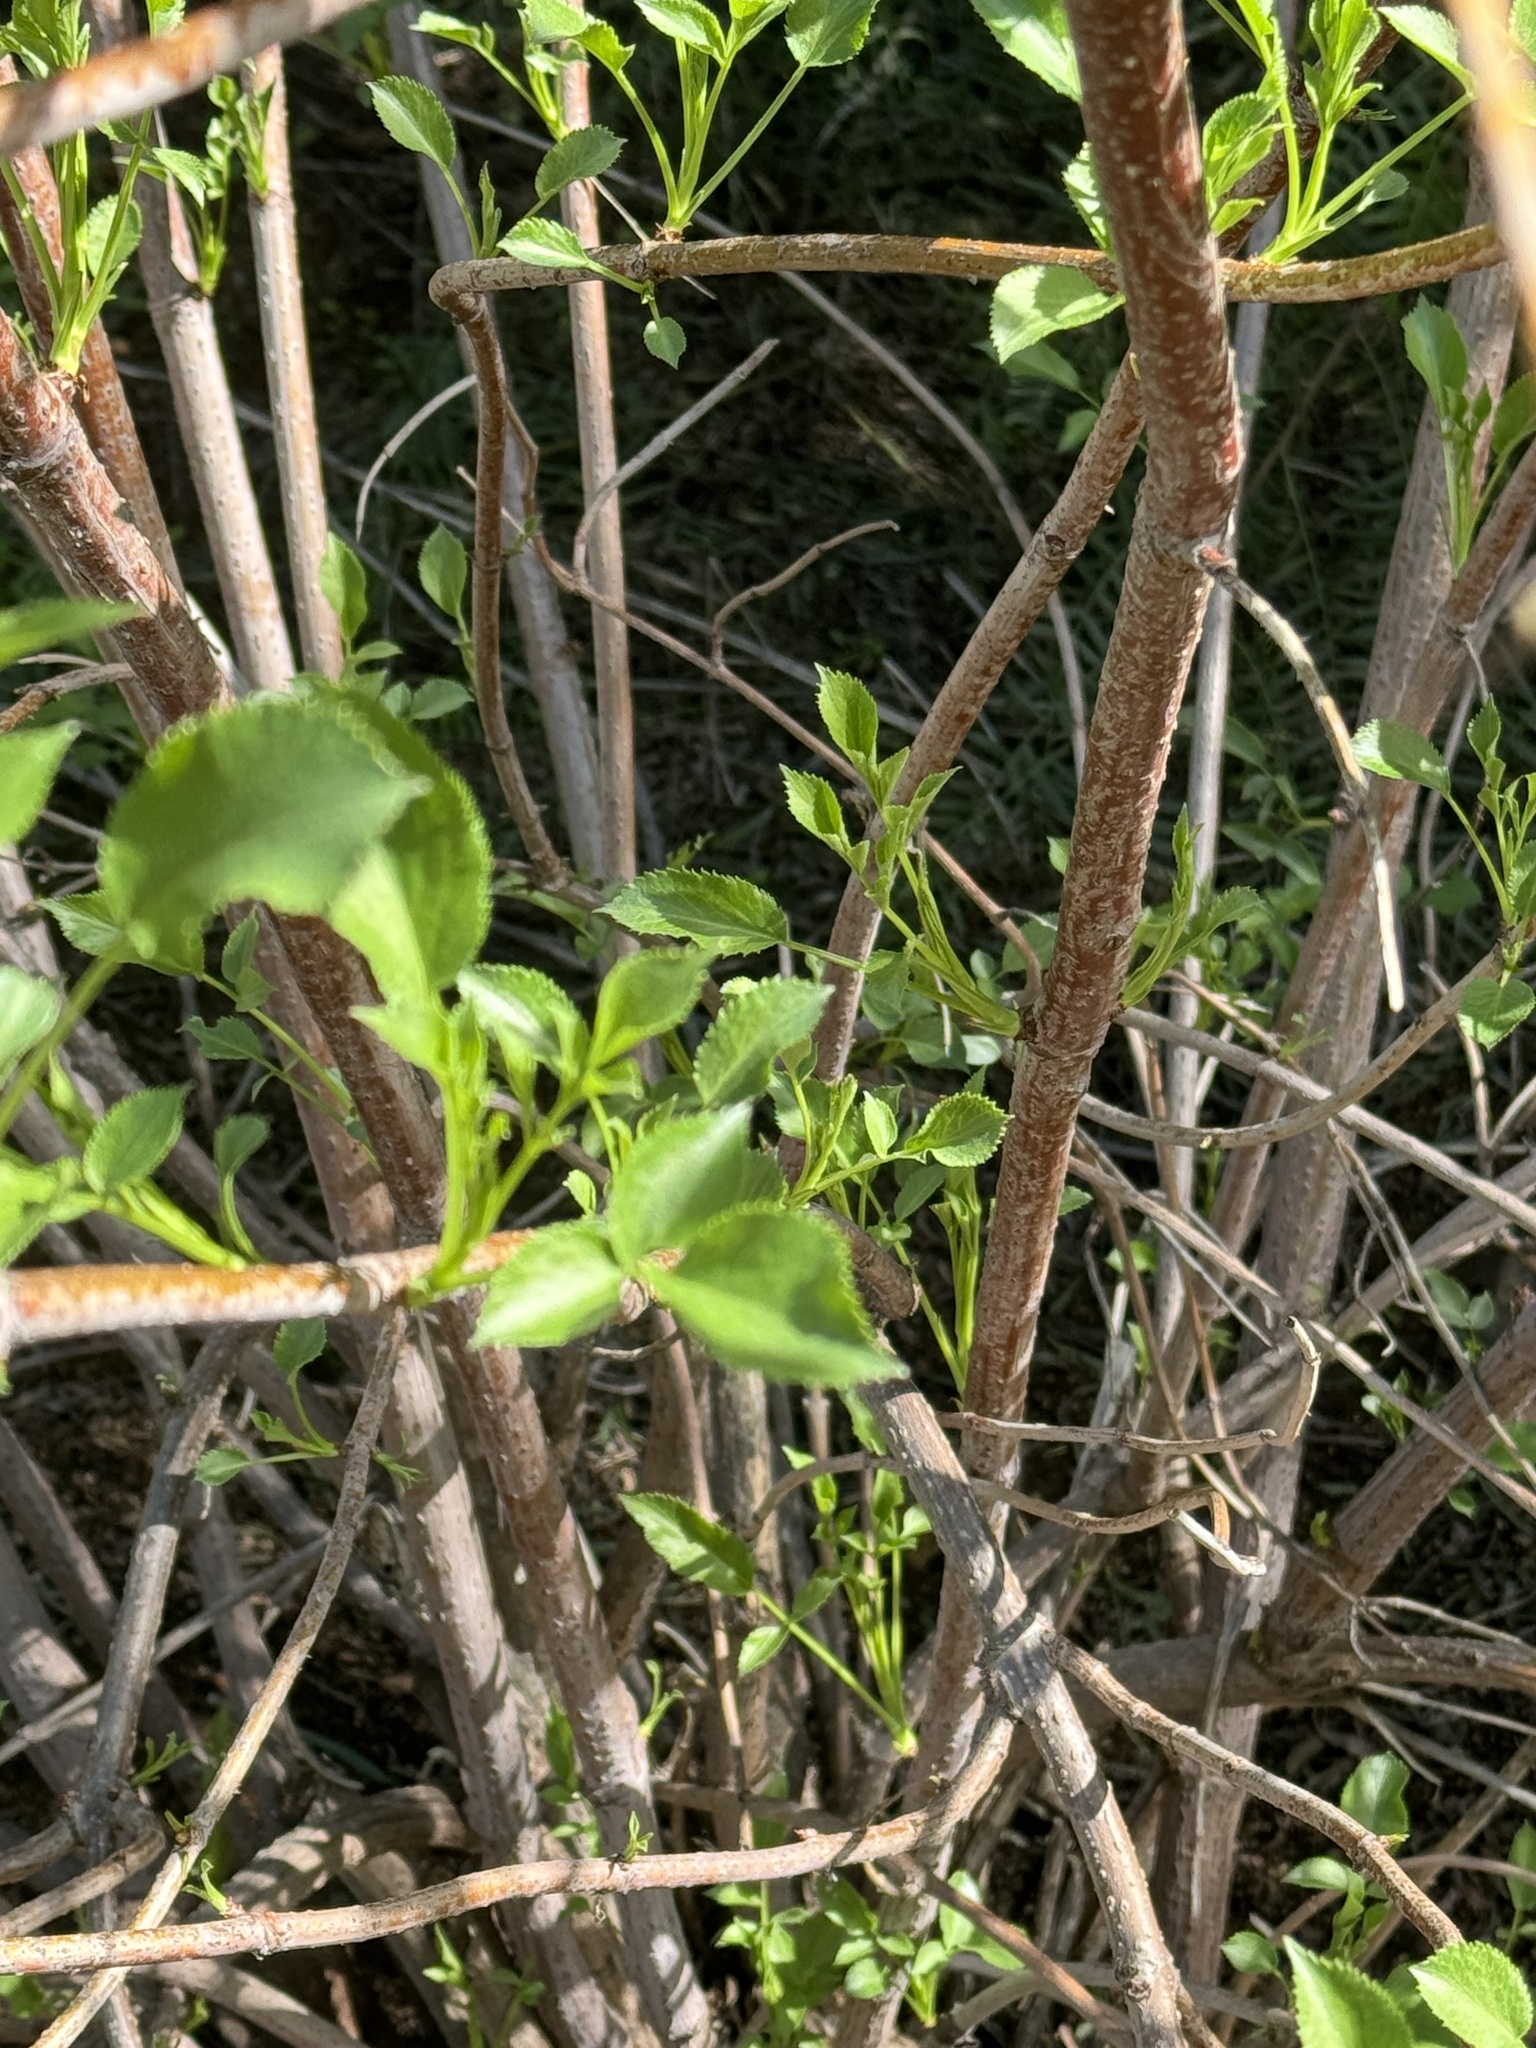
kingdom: Plantae
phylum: Tracheophyta
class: Magnoliopsida
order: Dipsacales
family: Viburnaceae
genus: Sambucus
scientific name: Sambucus cerulea
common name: Blue elder
